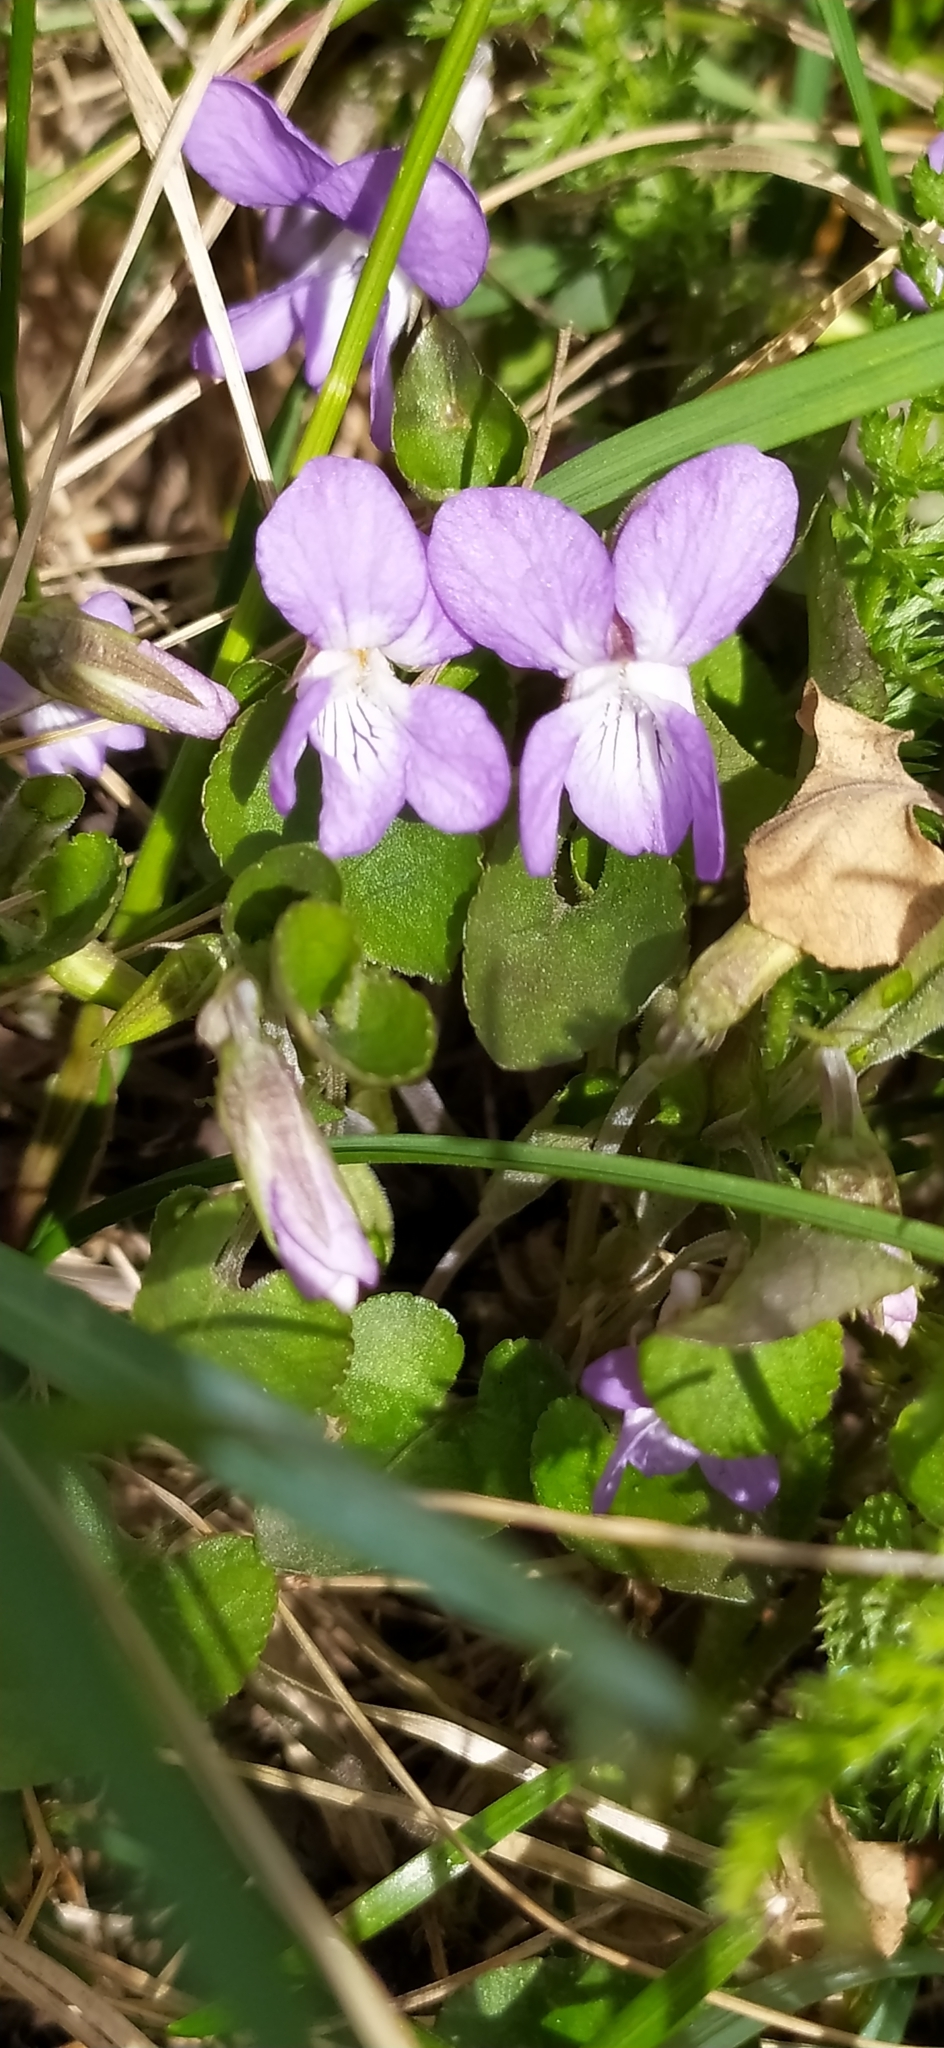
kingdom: Plantae
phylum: Tracheophyta
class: Magnoliopsida
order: Malpighiales
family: Violaceae
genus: Viola
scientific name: Viola rupestris
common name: Teesdale violet
